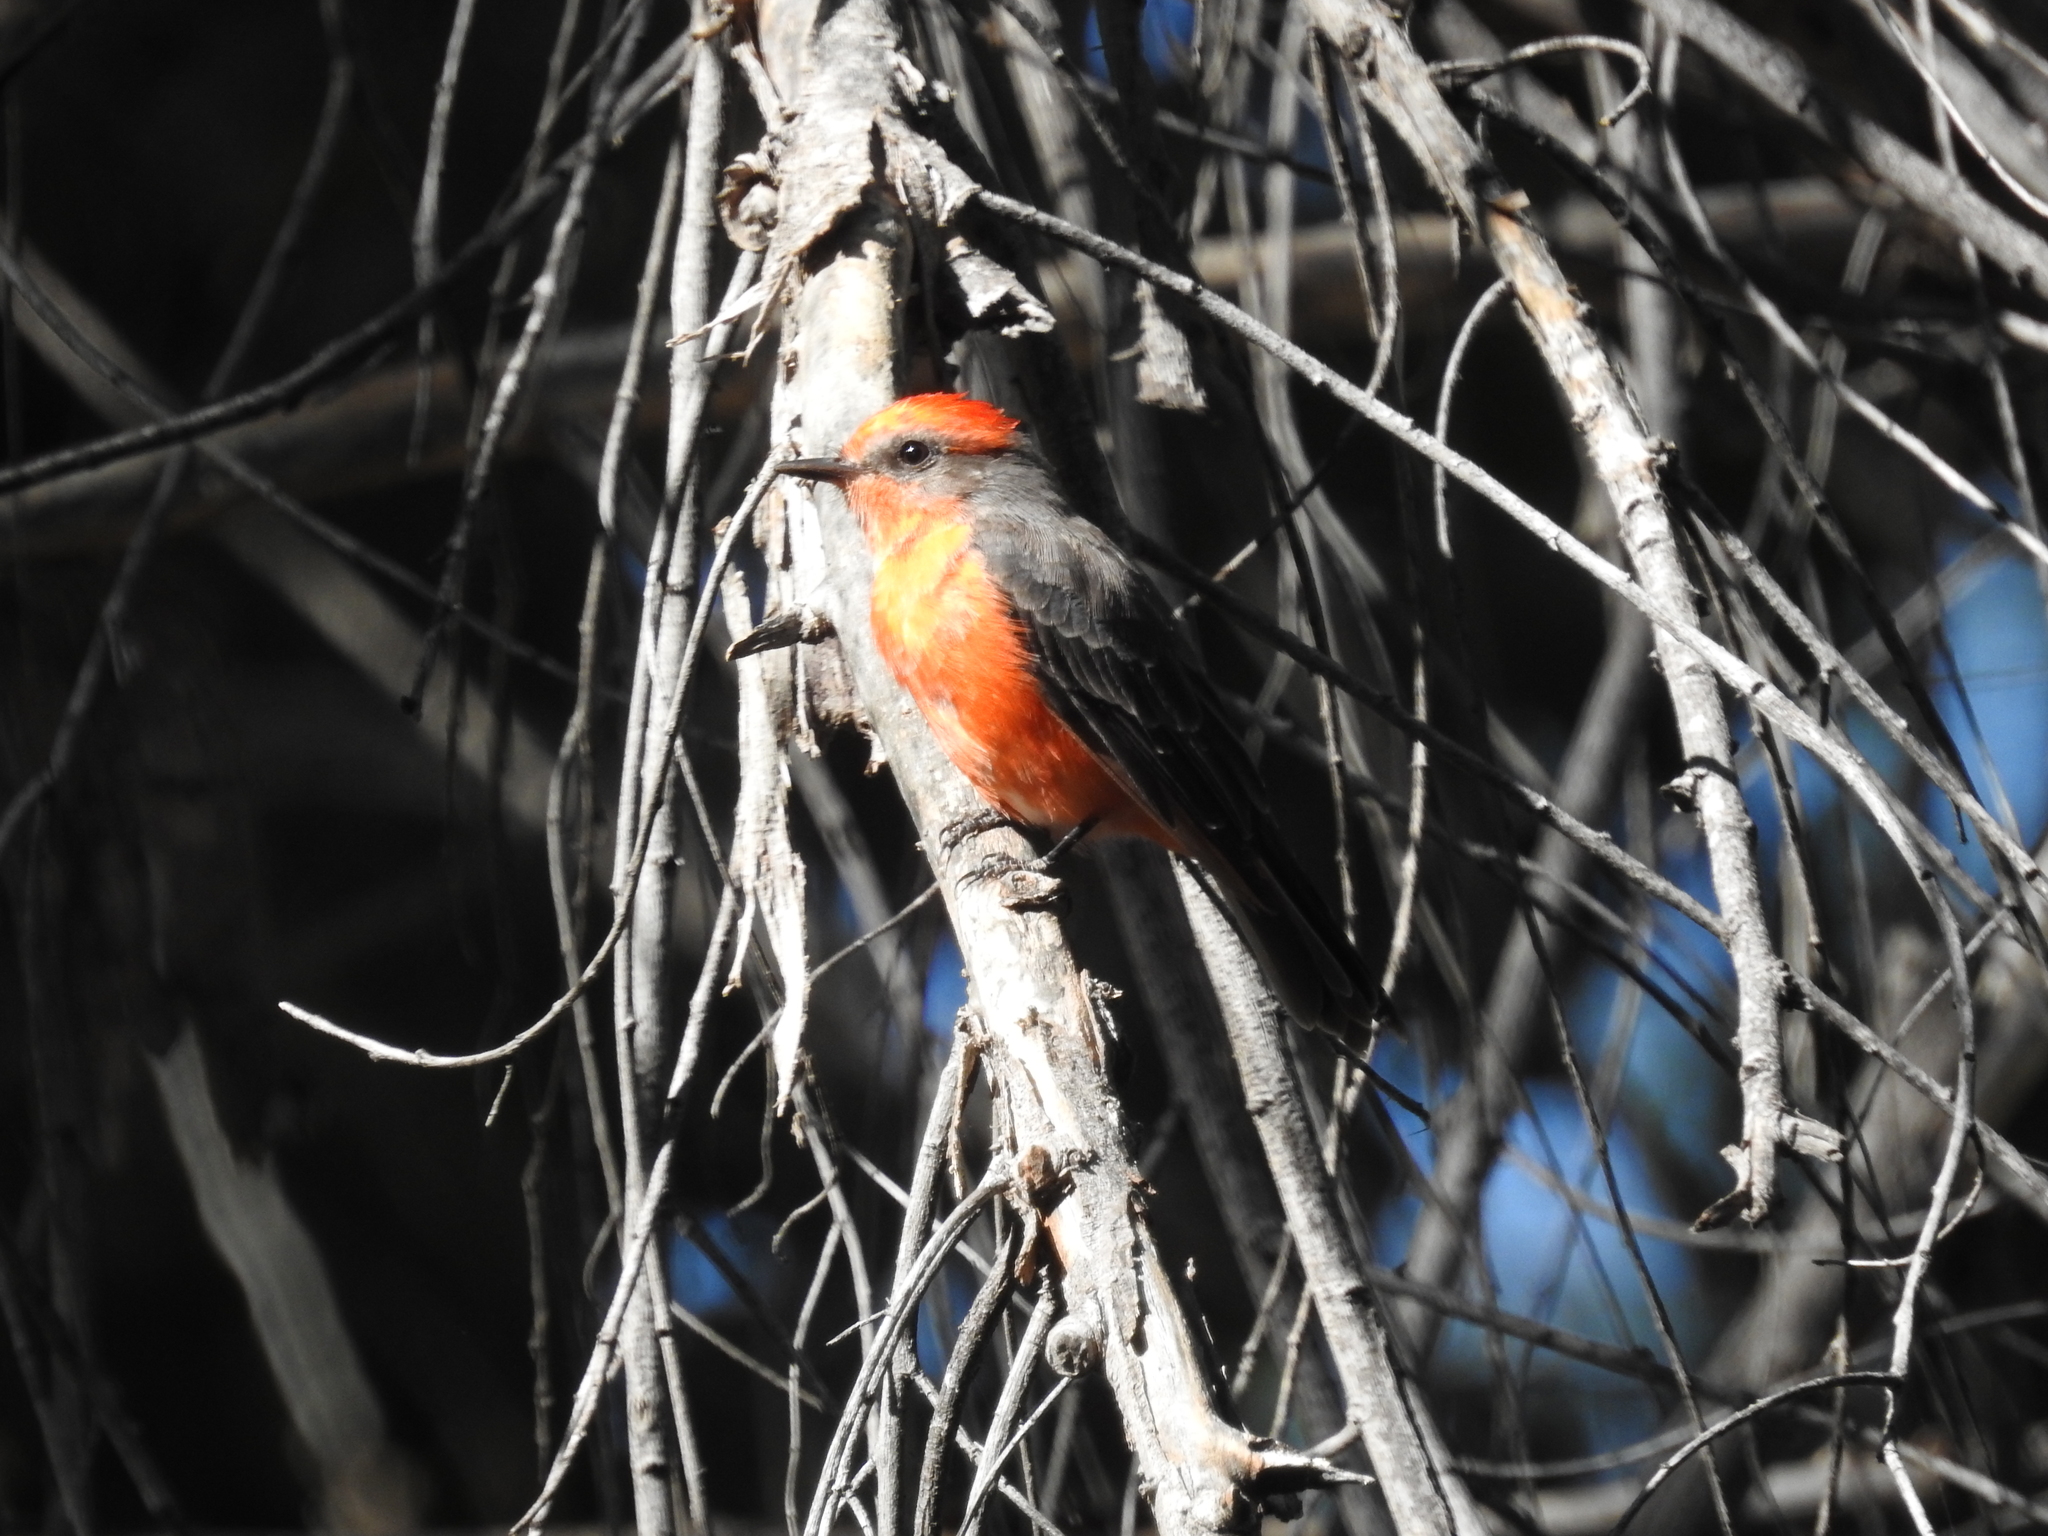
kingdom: Animalia
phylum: Chordata
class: Aves
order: Passeriformes
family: Tyrannidae
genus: Pyrocephalus
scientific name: Pyrocephalus rubinus
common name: Vermilion flycatcher
